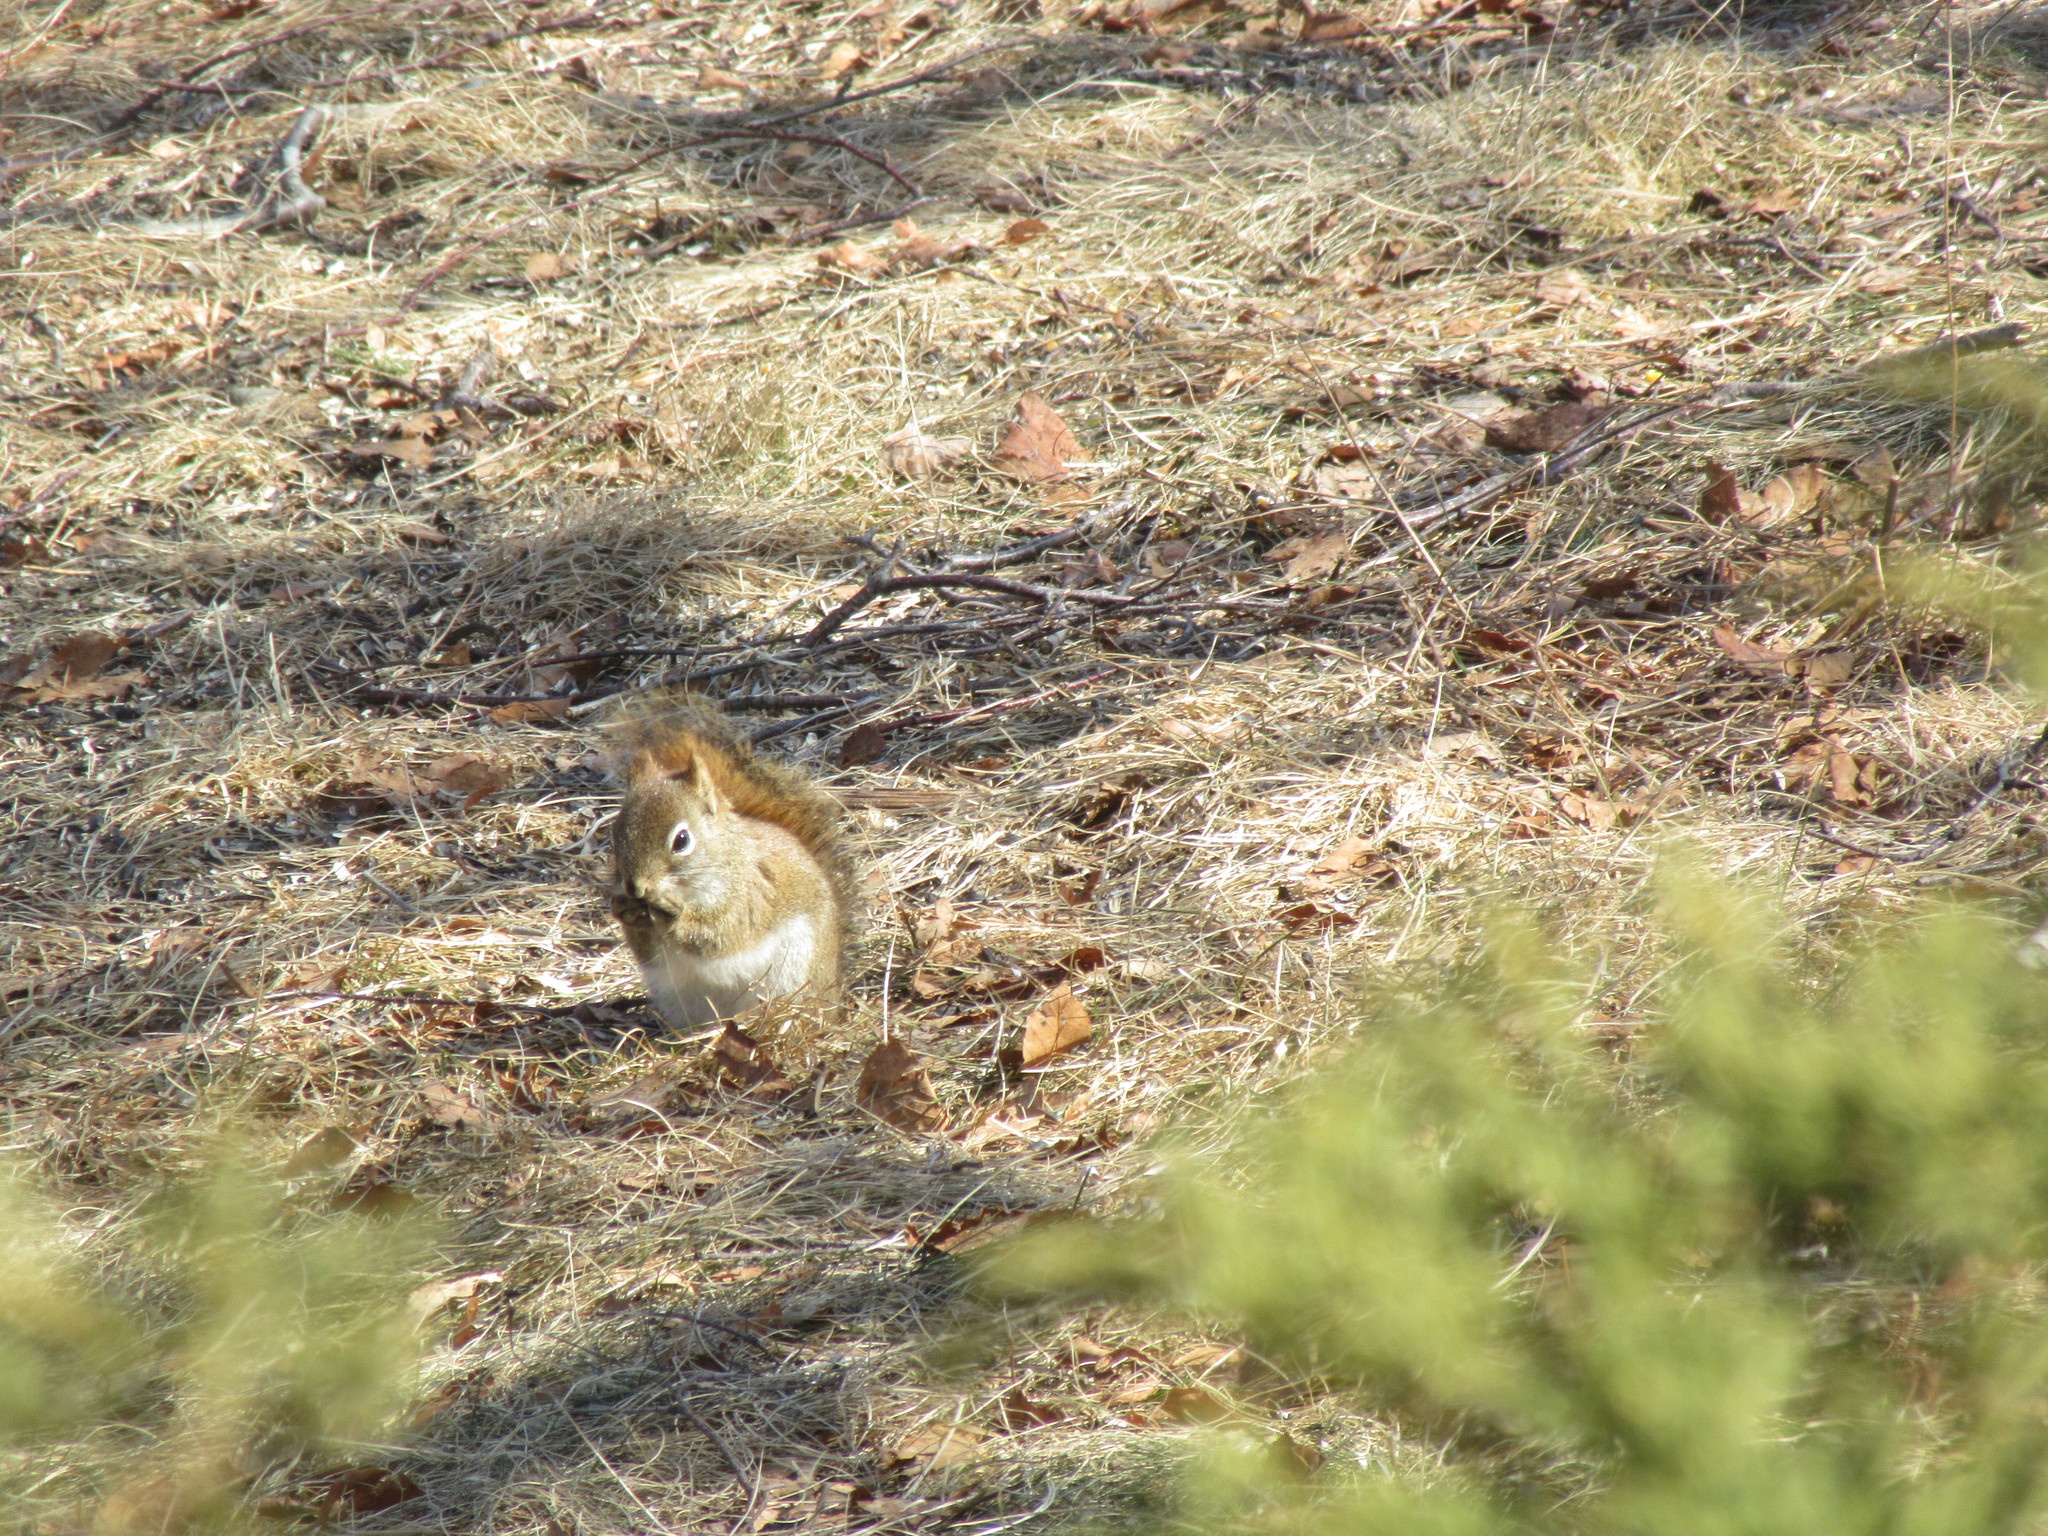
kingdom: Animalia
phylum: Chordata
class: Mammalia
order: Rodentia
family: Sciuridae
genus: Tamiasciurus
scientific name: Tamiasciurus hudsonicus
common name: Red squirrel
